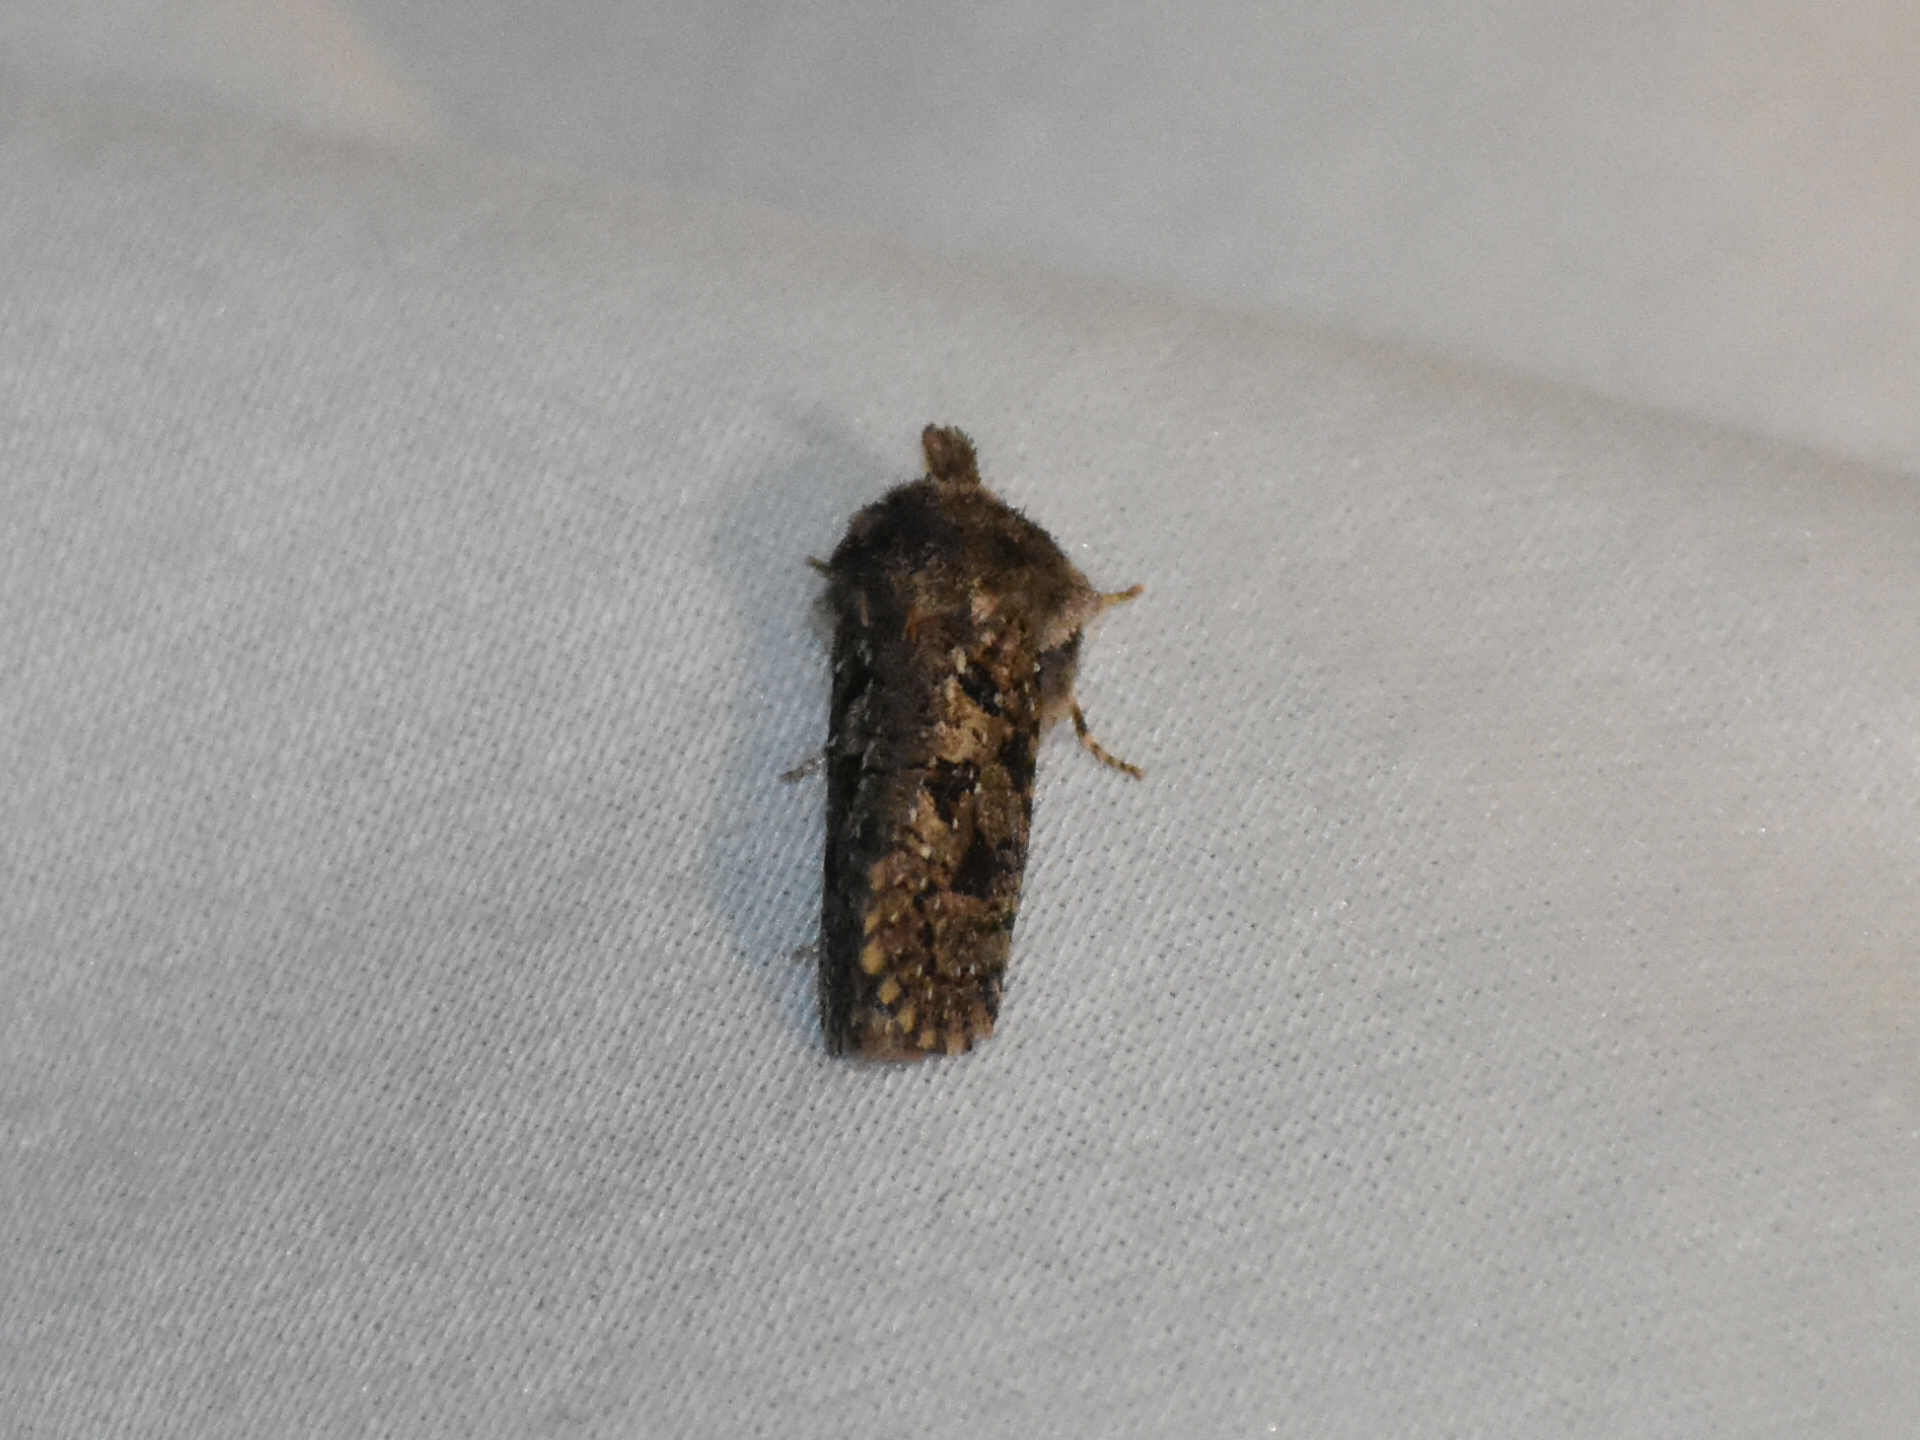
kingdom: Animalia
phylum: Arthropoda
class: Insecta
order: Lepidoptera
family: Tineidae
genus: Acrolophus
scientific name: Acrolophus arcanella
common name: Arcane grass tubeworm moth
